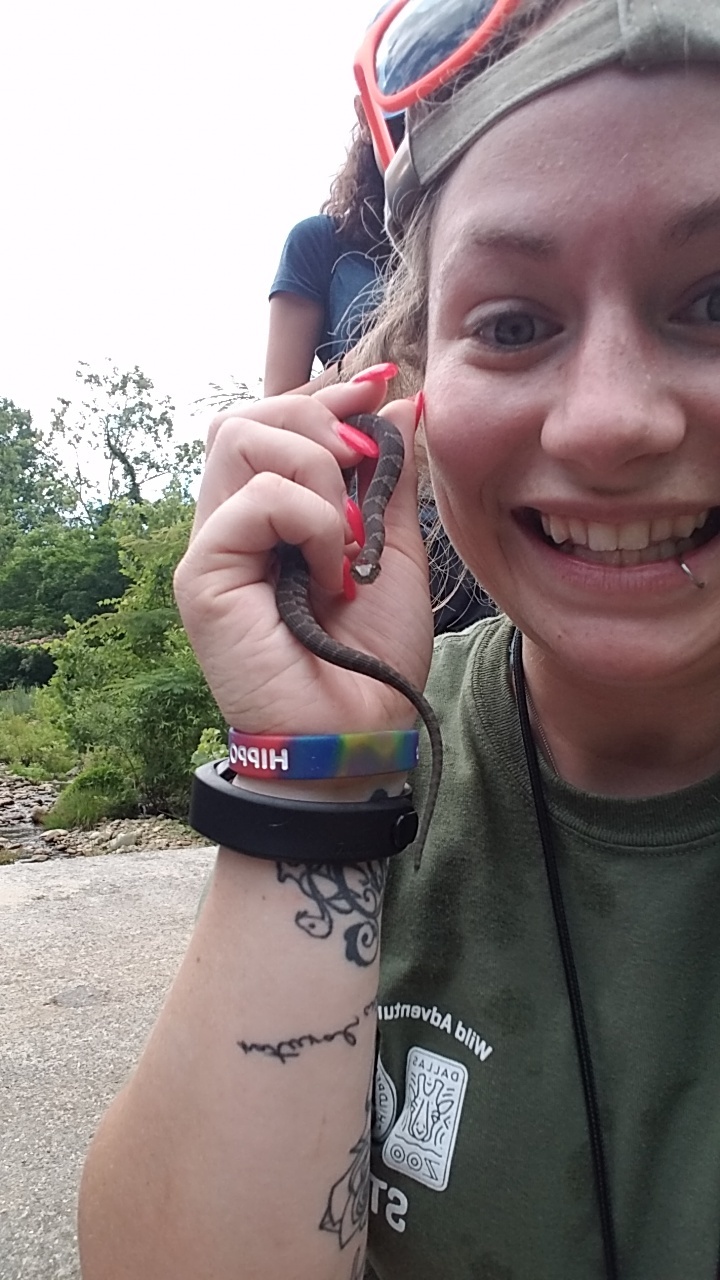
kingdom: Animalia
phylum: Chordata
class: Squamata
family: Colubridae
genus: Nerodia
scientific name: Nerodia sipedon
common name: Northern water snake
